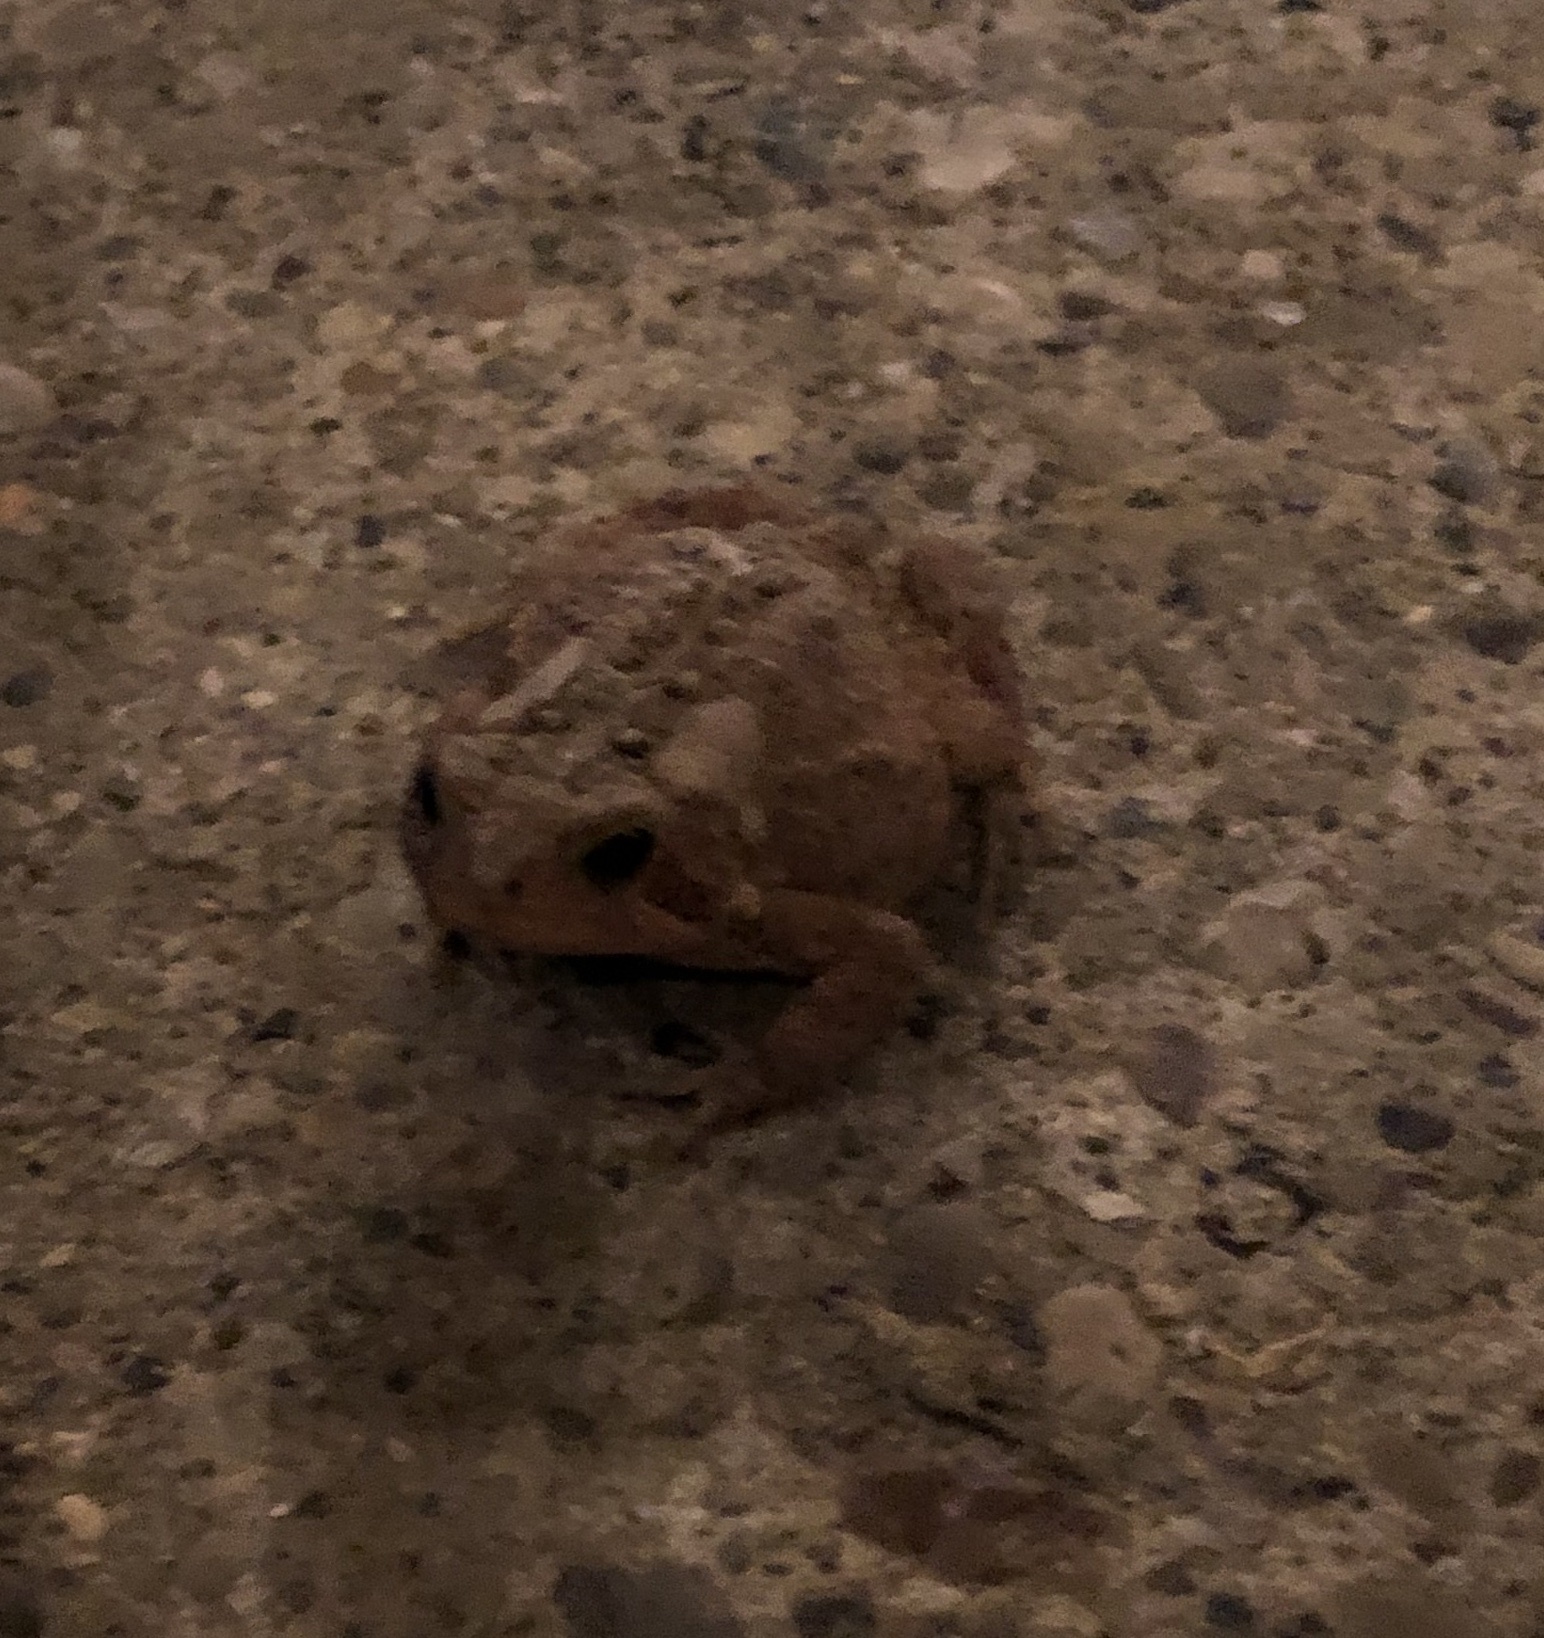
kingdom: Animalia
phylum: Chordata
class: Amphibia
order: Anura
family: Bufonidae
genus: Anaxyrus
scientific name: Anaxyrus americanus
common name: American toad
